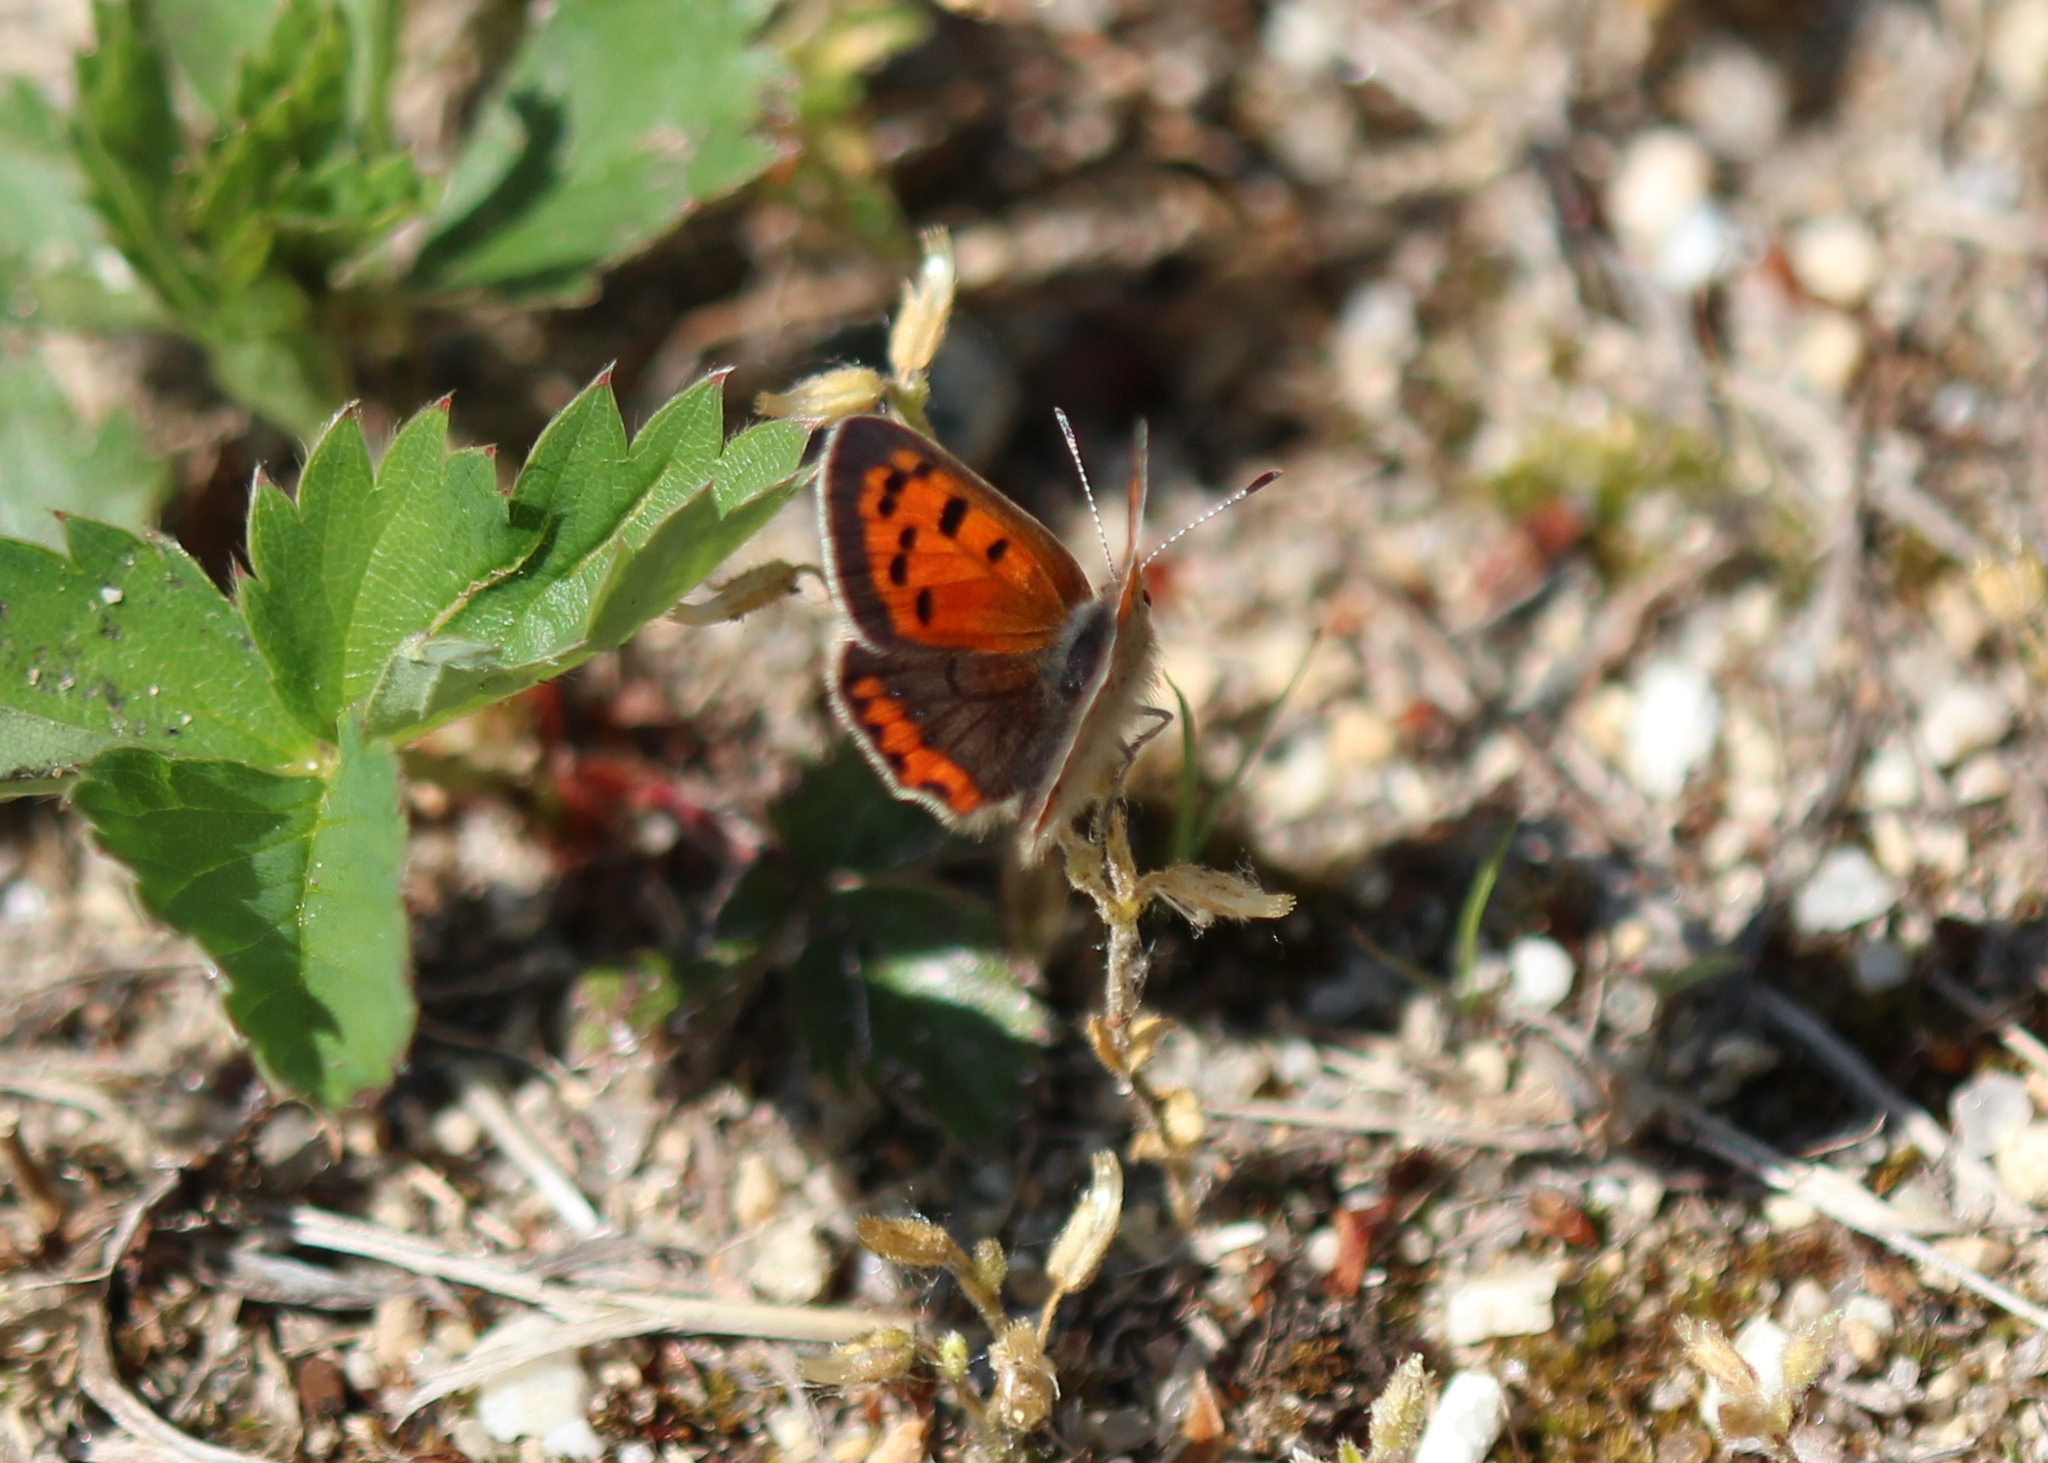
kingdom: Animalia
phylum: Arthropoda
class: Insecta
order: Lepidoptera
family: Lycaenidae
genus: Lycaena
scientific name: Lycaena hypophlaeas
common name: American copper
